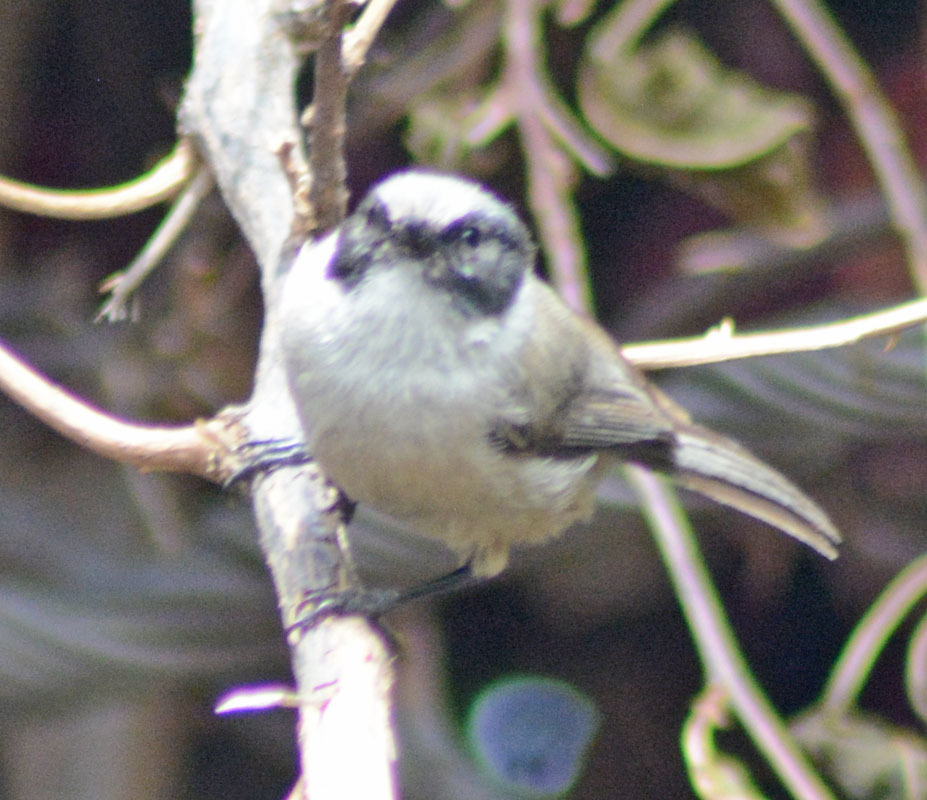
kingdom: Animalia
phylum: Chordata
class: Aves
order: Passeriformes
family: Aegithalidae
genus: Psaltriparus
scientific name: Psaltriparus minimus
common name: American bushtit
